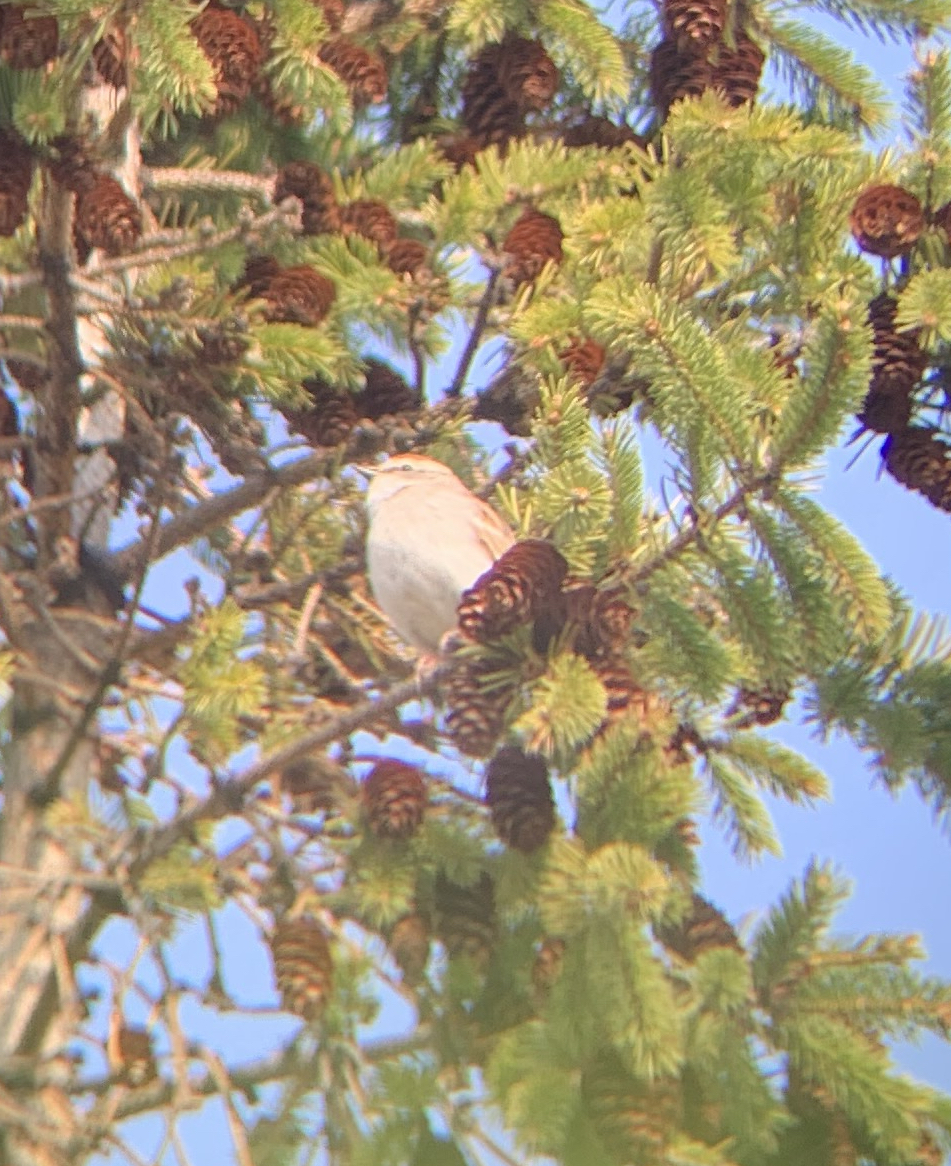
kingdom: Animalia
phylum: Chordata
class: Aves
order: Passeriformes
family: Passerellidae
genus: Spizella
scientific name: Spizella passerina
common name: Chipping sparrow
